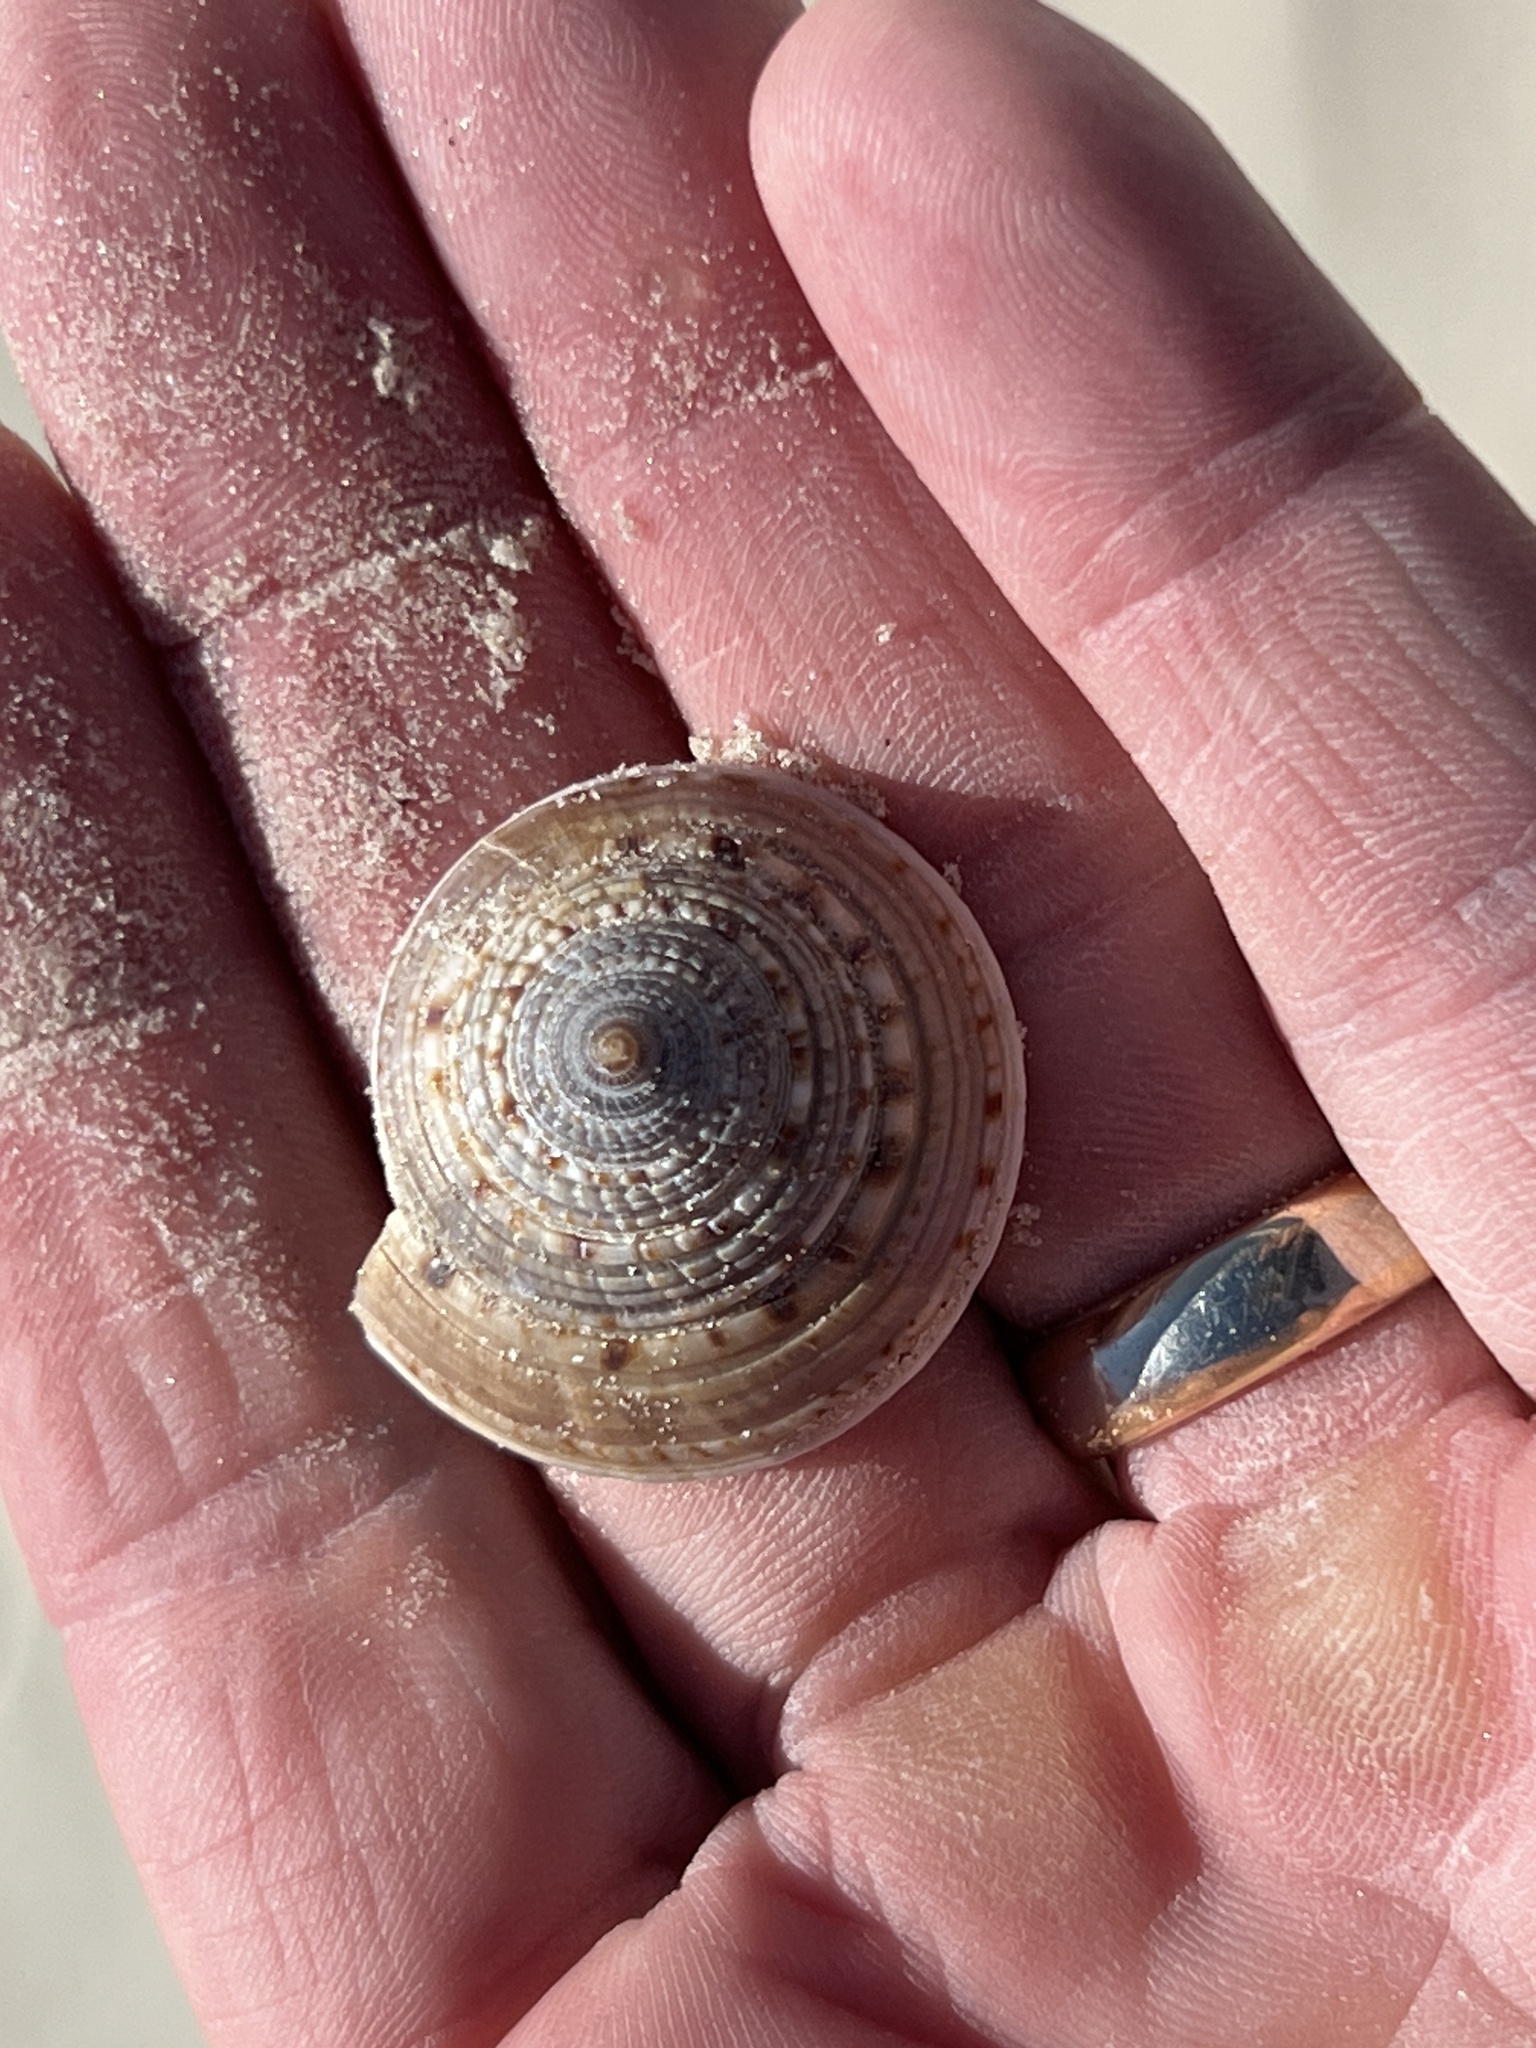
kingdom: Animalia
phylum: Mollusca
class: Gastropoda
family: Architectonicidae
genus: Architectonica
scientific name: Architectonica nobilis
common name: Common sundial
